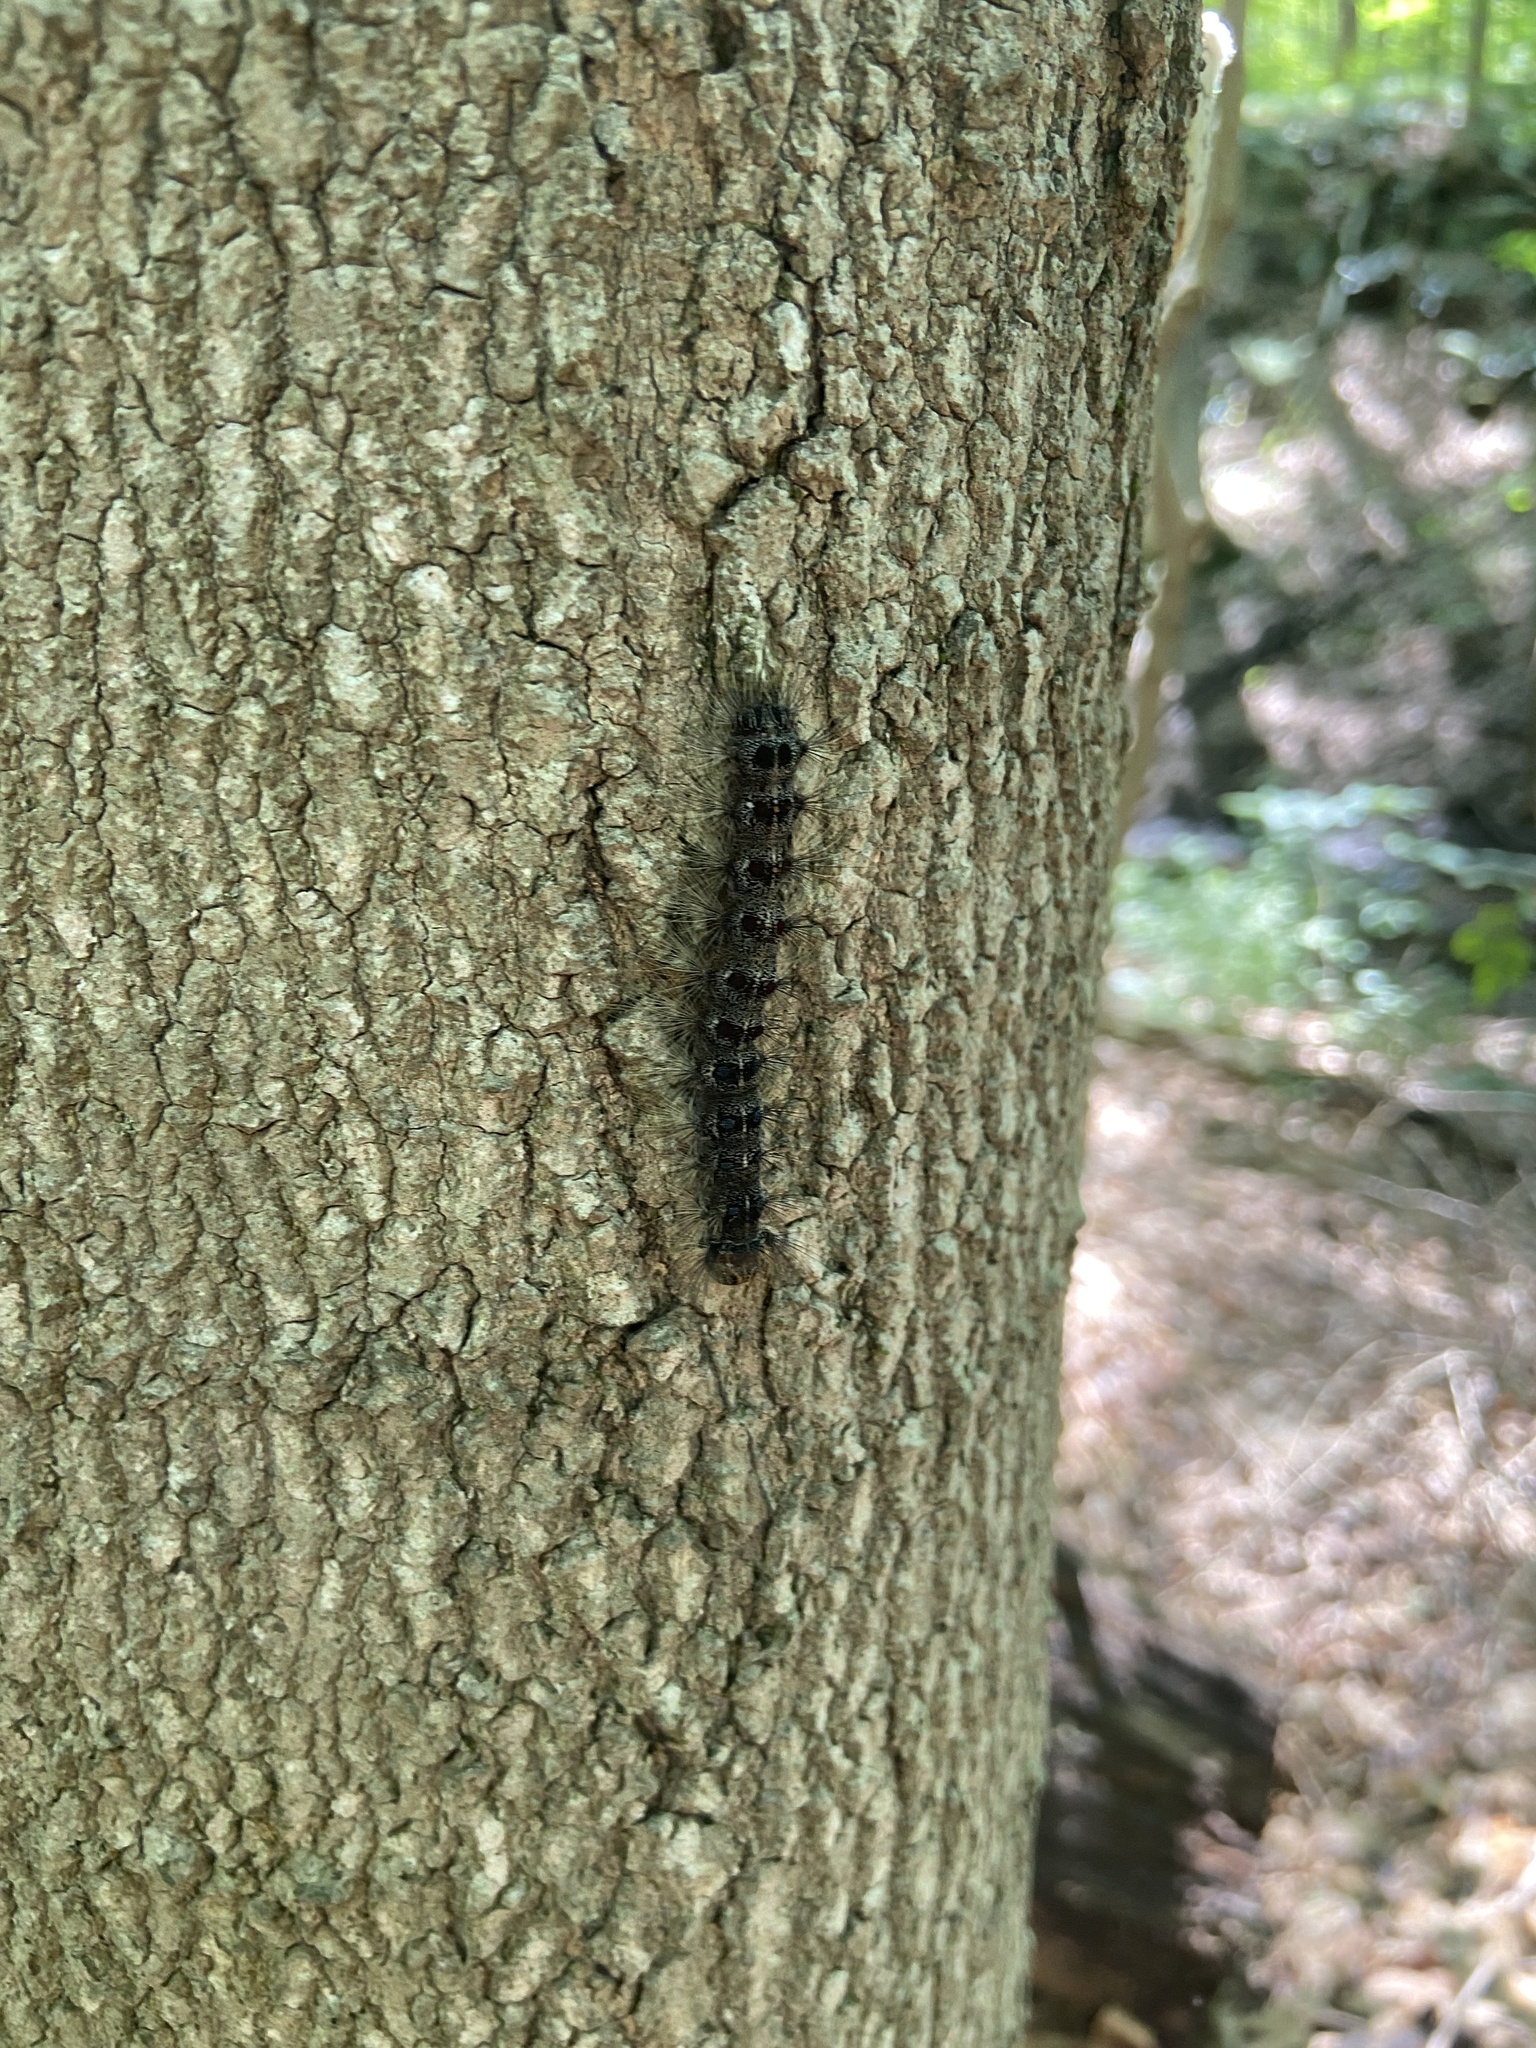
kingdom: Animalia
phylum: Arthropoda
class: Insecta
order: Lepidoptera
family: Erebidae
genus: Lymantria
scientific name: Lymantria dispar
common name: Gypsy moth
